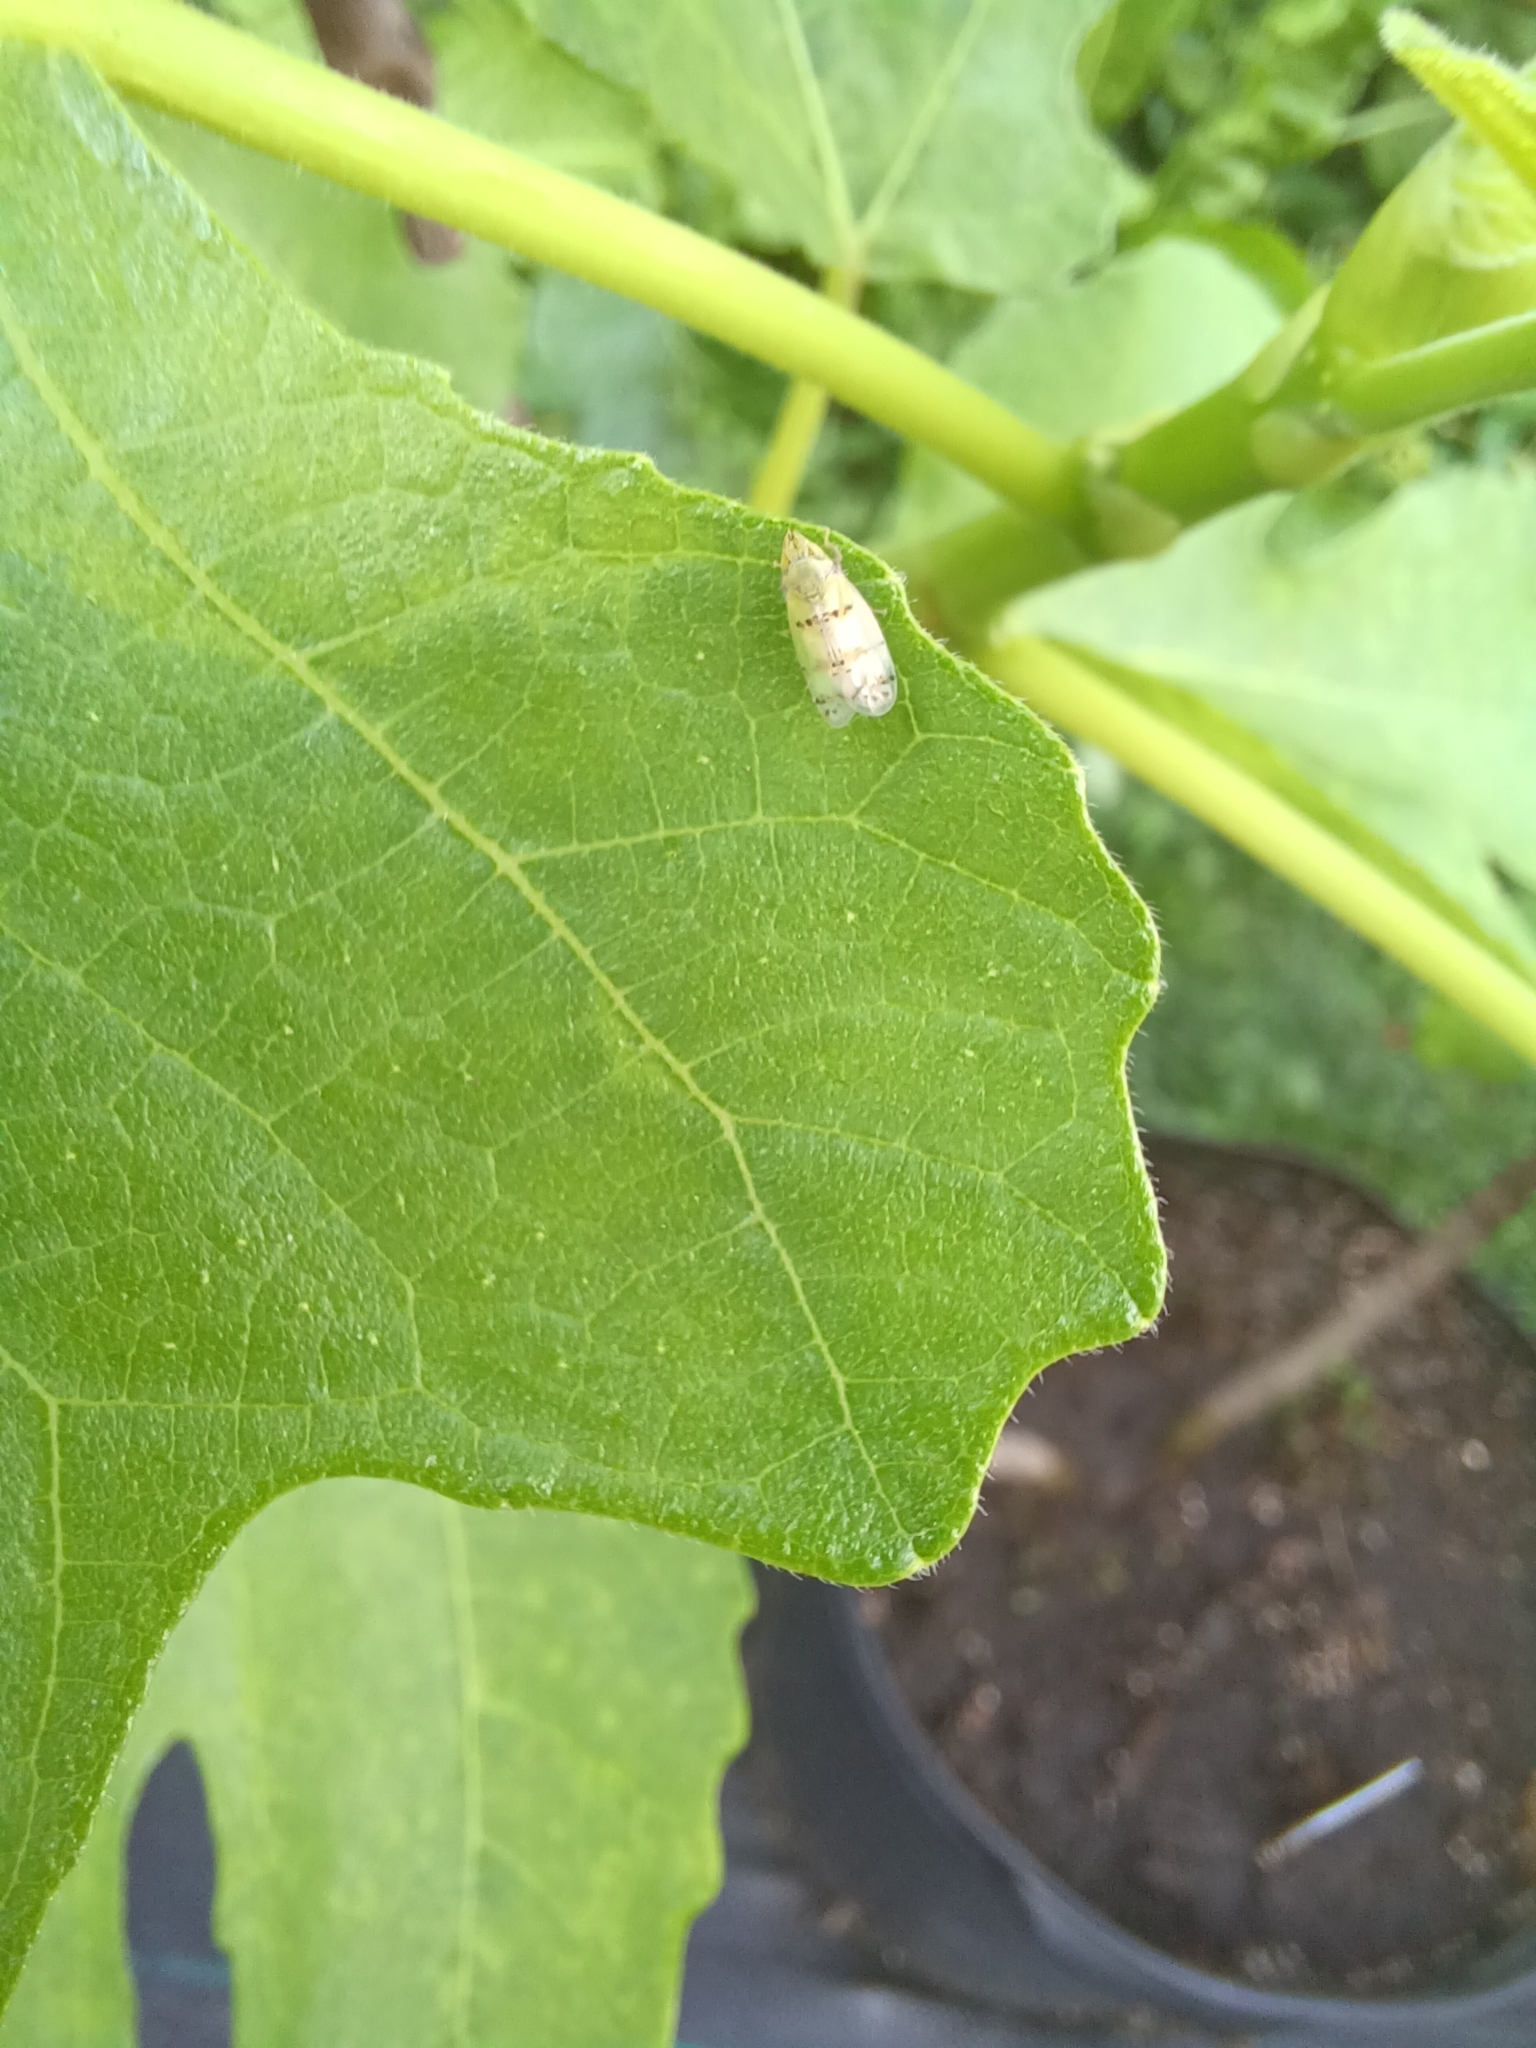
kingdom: Animalia
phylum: Arthropoda
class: Insecta
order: Hemiptera
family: Cicadellidae
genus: Japananus
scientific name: Japananus hyalinus
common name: The japanese maple leafhopper
